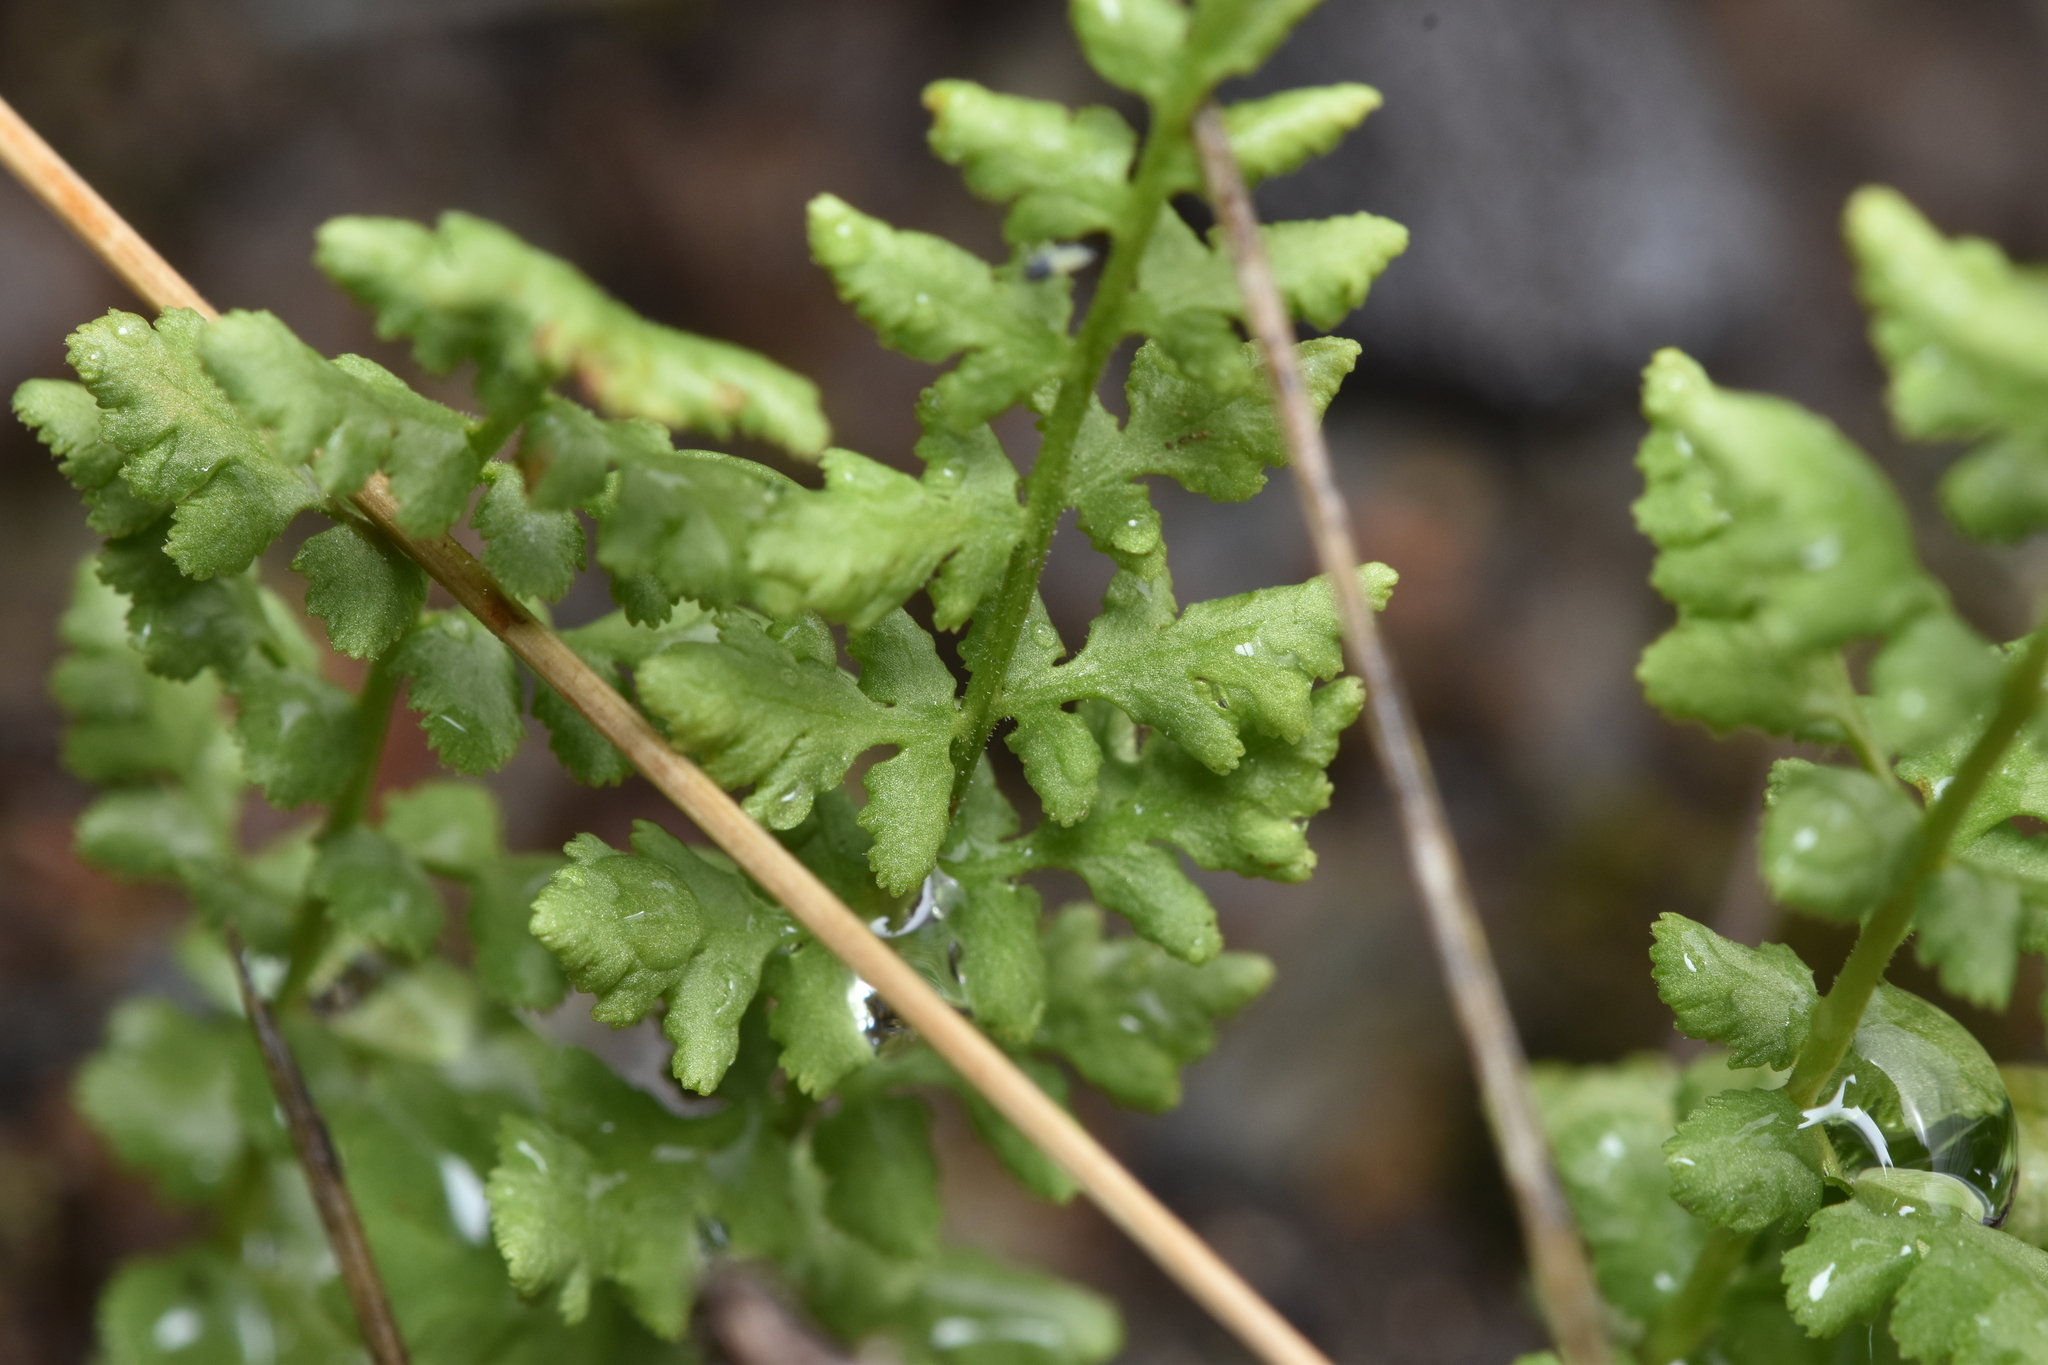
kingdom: Plantae
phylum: Tracheophyta
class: Polypodiopsida
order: Polypodiales
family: Woodsiaceae
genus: Physematium
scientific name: Physematium oreganum
